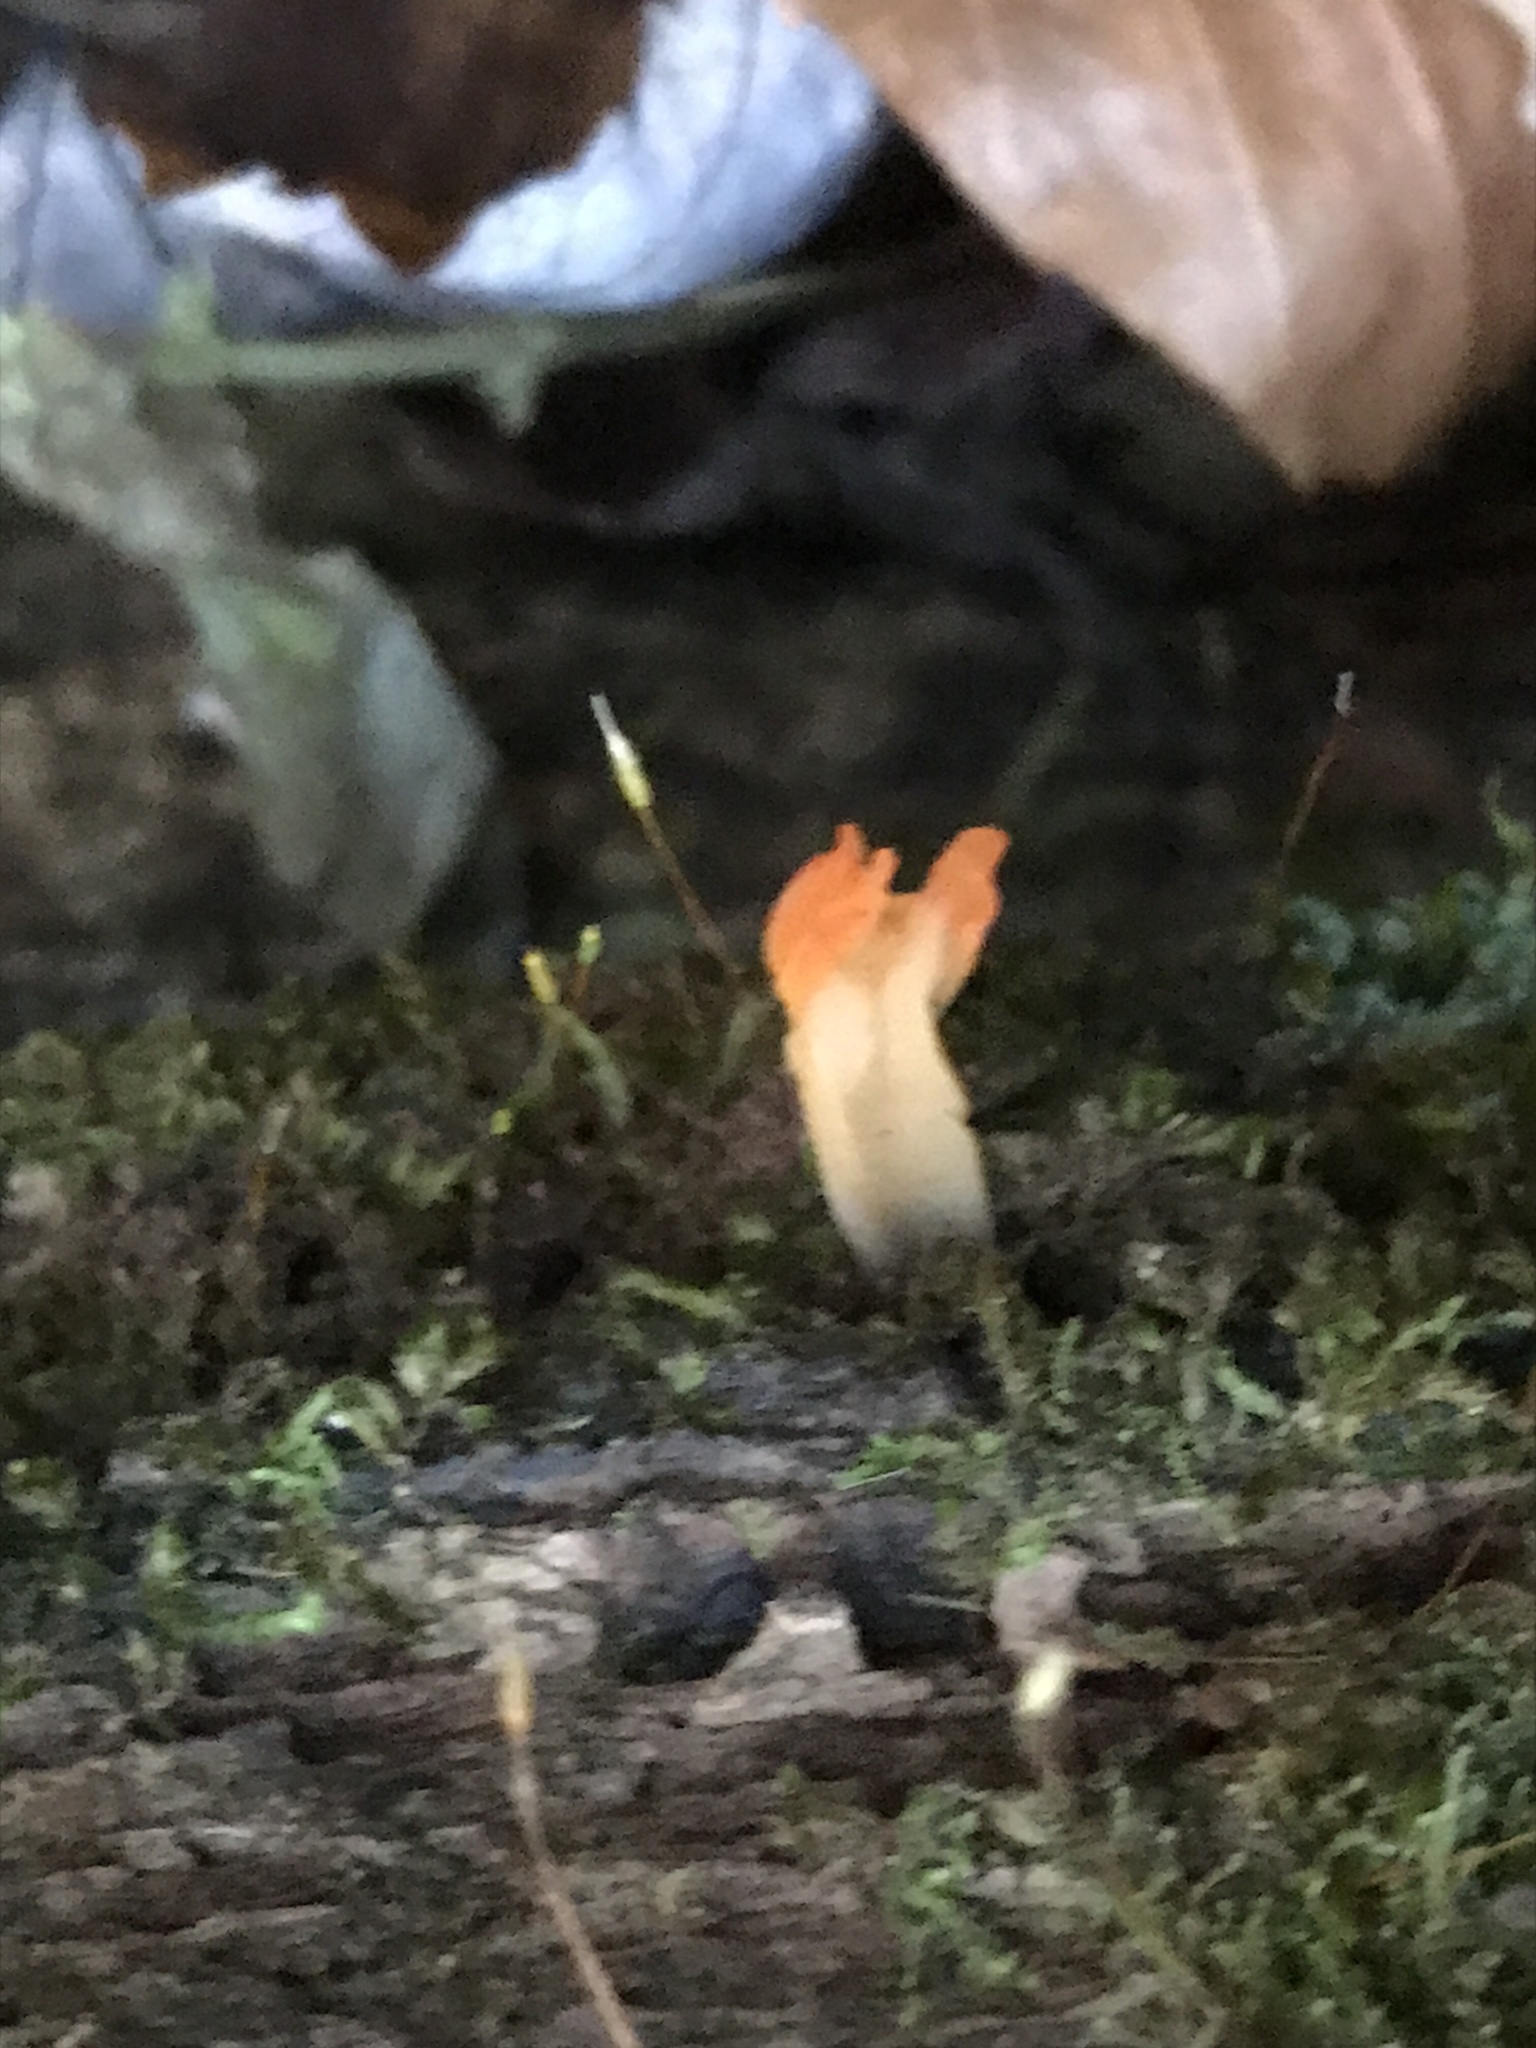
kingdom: Fungi
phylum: Basidiomycota
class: Dacrymycetes
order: Dacrymycetales
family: Dacrymycetaceae
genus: Calocera
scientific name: Calocera cornea
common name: Small stagshorn
